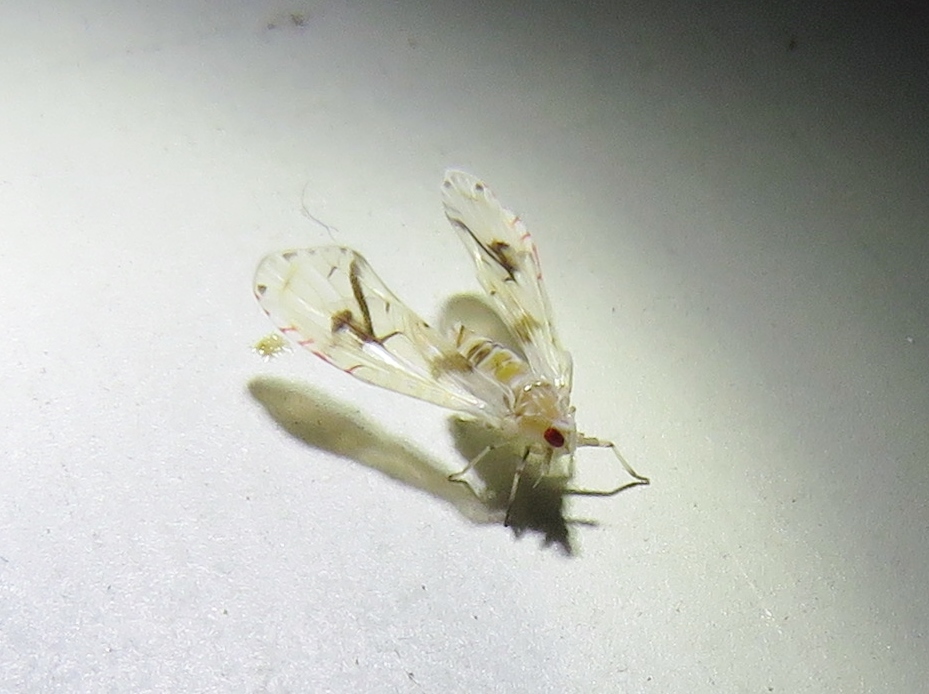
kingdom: Animalia
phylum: Arthropoda
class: Insecta
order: Hemiptera
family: Derbidae
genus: Anotia
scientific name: Anotia robertsonii
